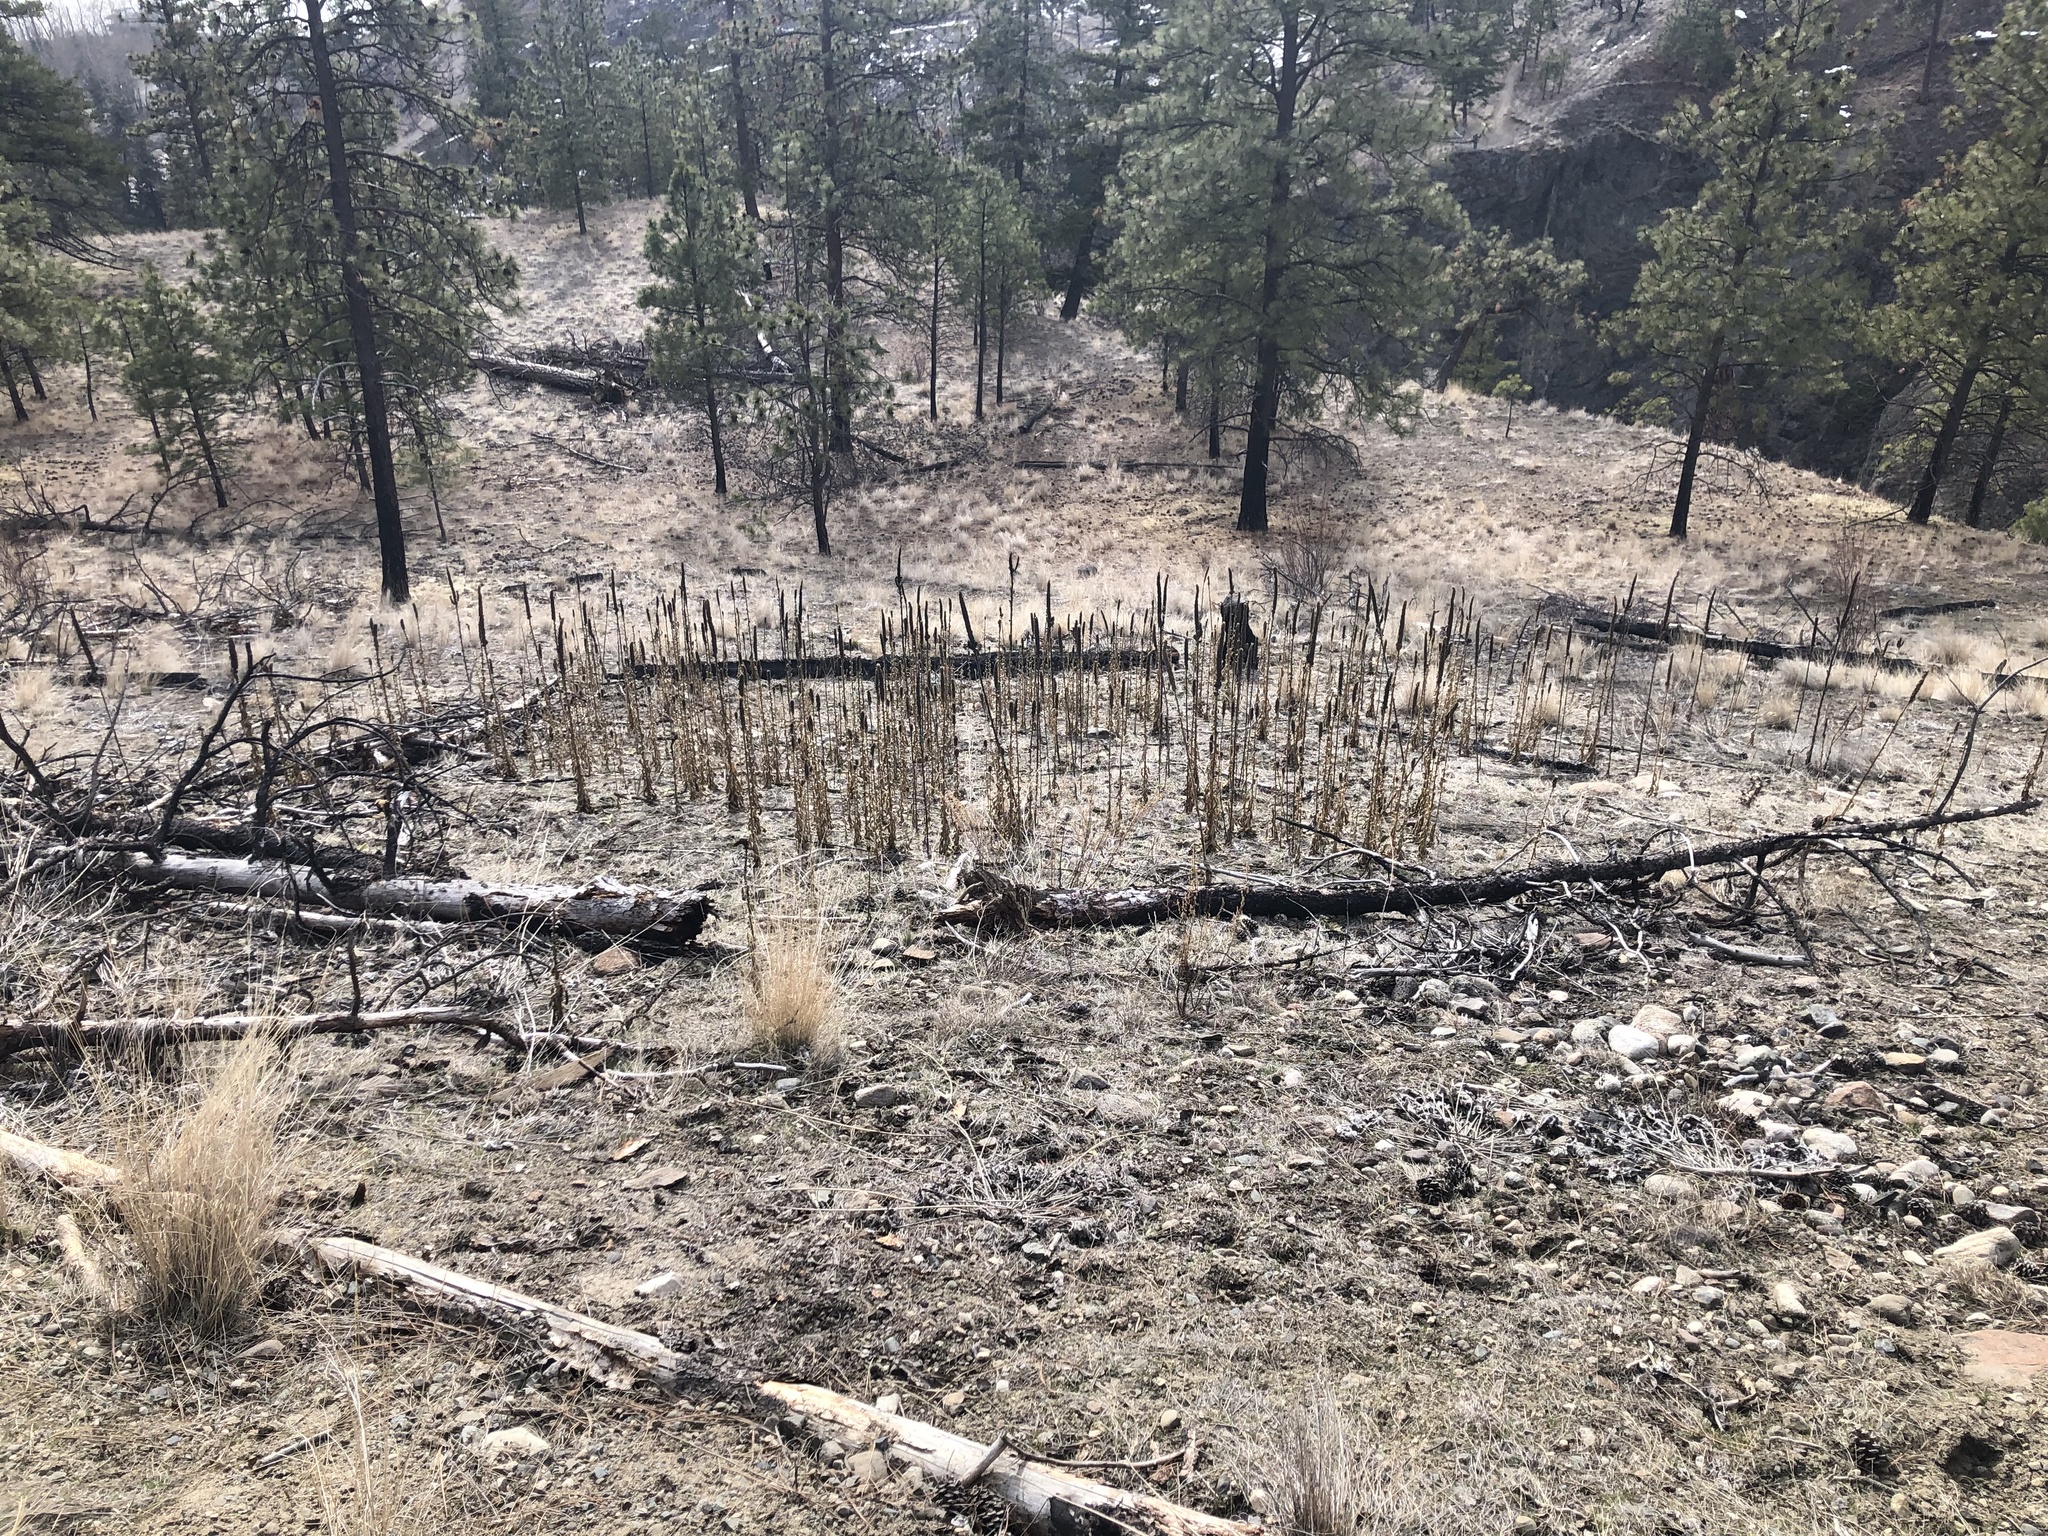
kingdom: Plantae
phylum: Tracheophyta
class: Magnoliopsida
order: Lamiales
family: Scrophulariaceae
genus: Verbascum
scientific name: Verbascum thapsus
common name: Common mullein
